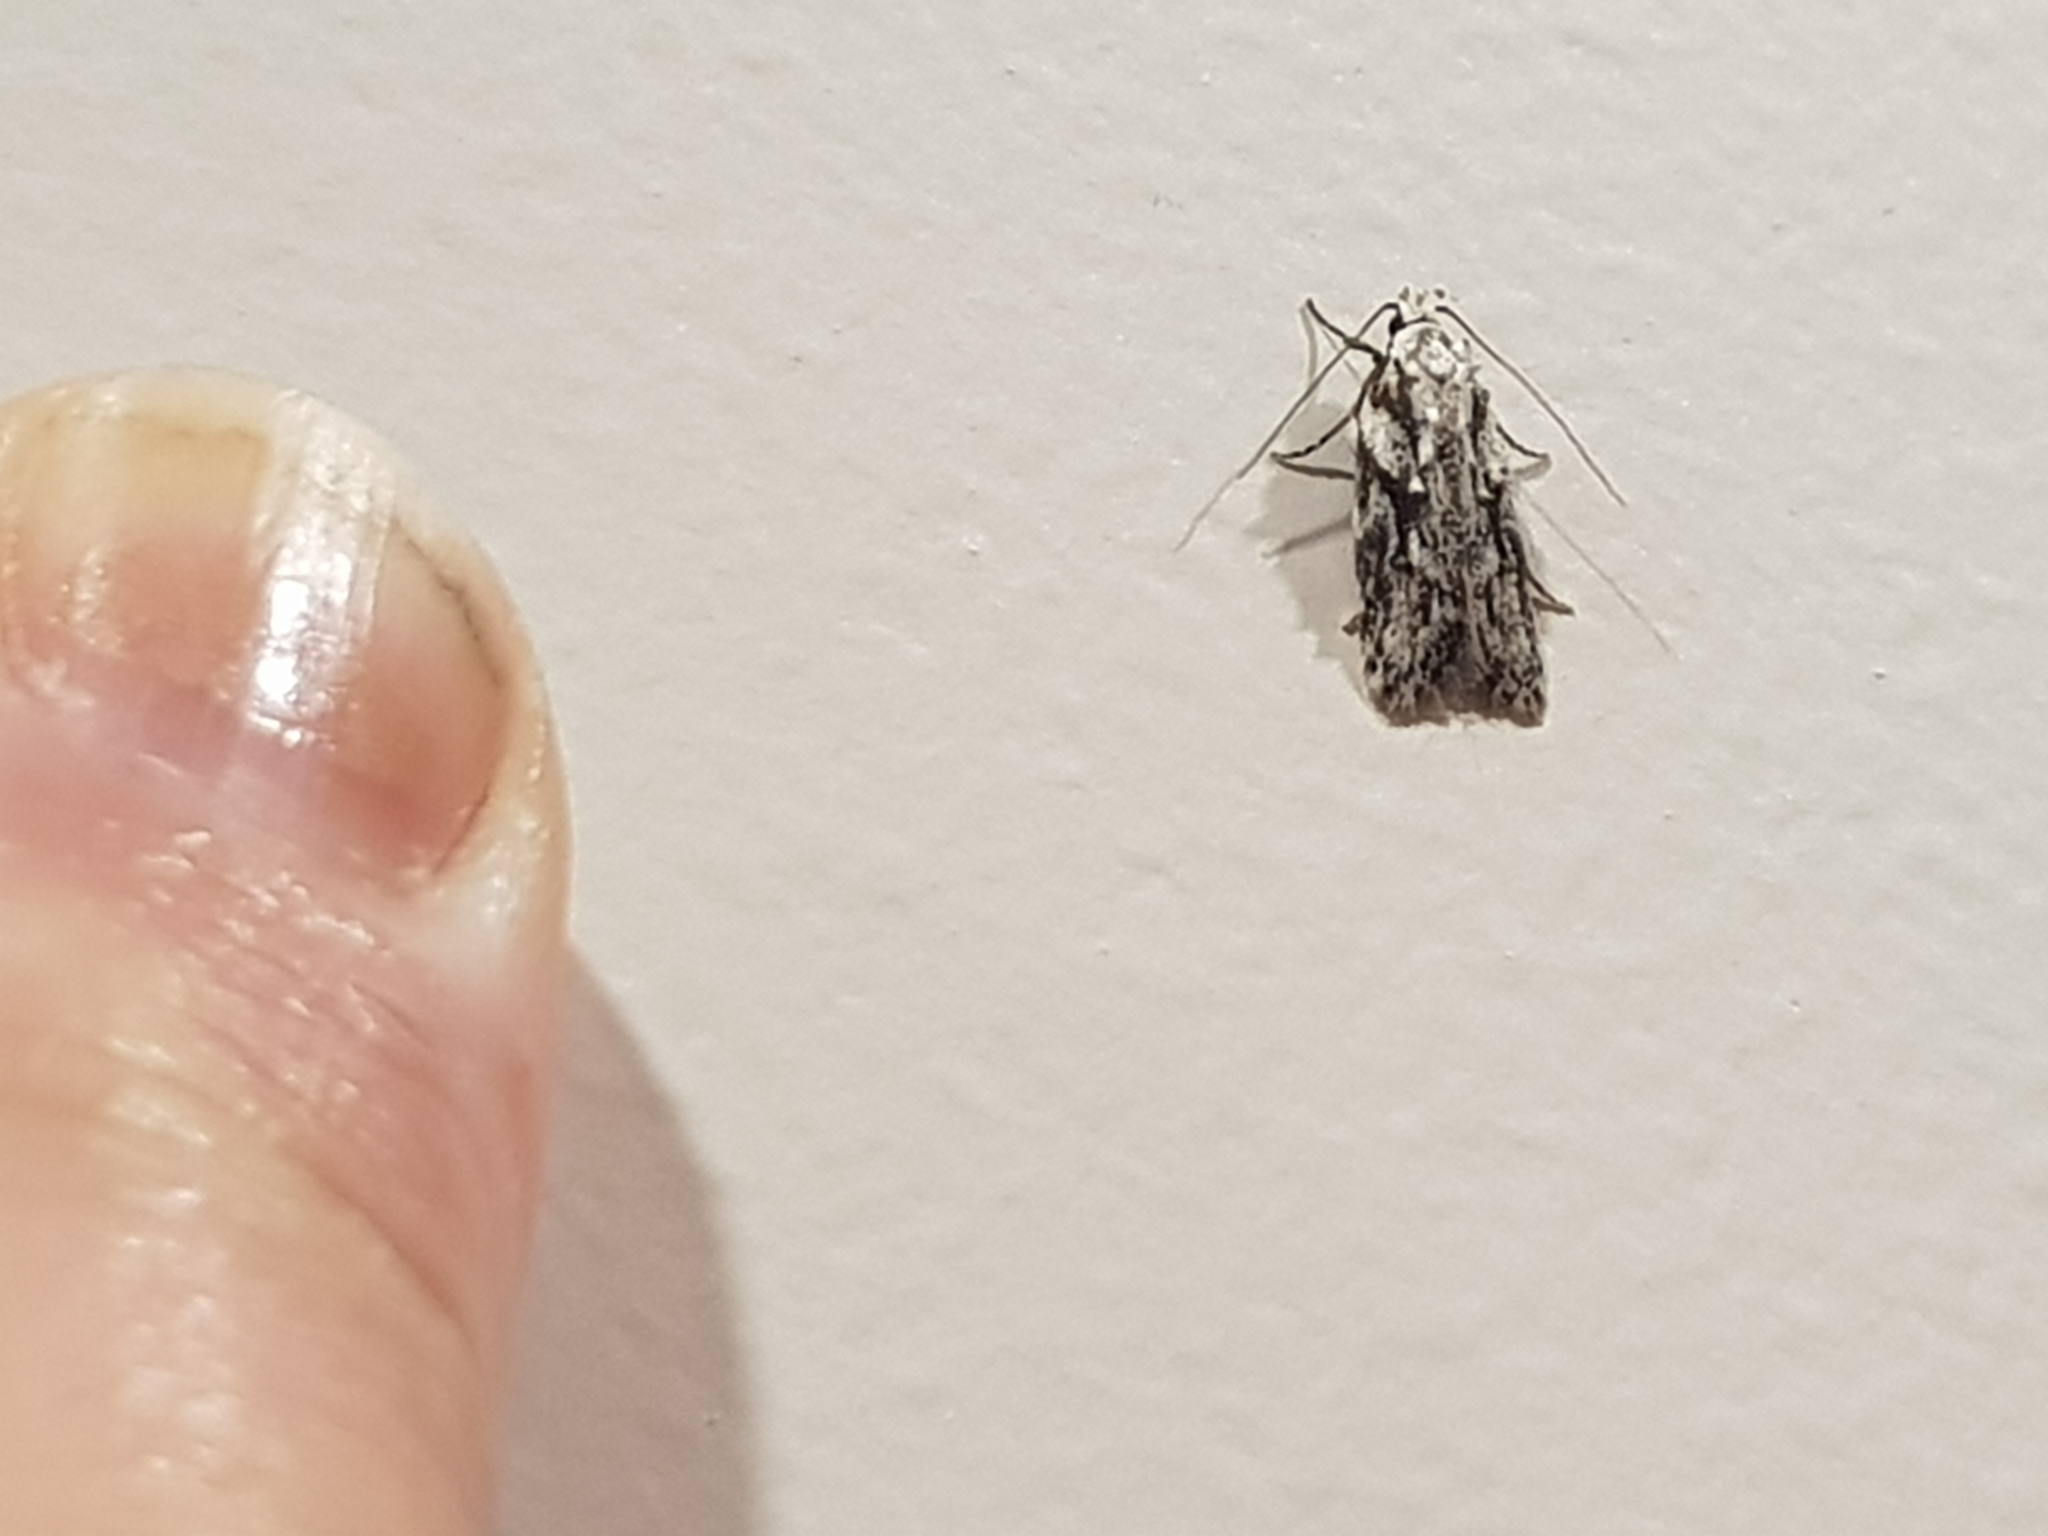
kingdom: Animalia
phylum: Arthropoda
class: Insecta
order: Lepidoptera
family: Oecophoridae
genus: Izatha
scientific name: Izatha mesoschista
